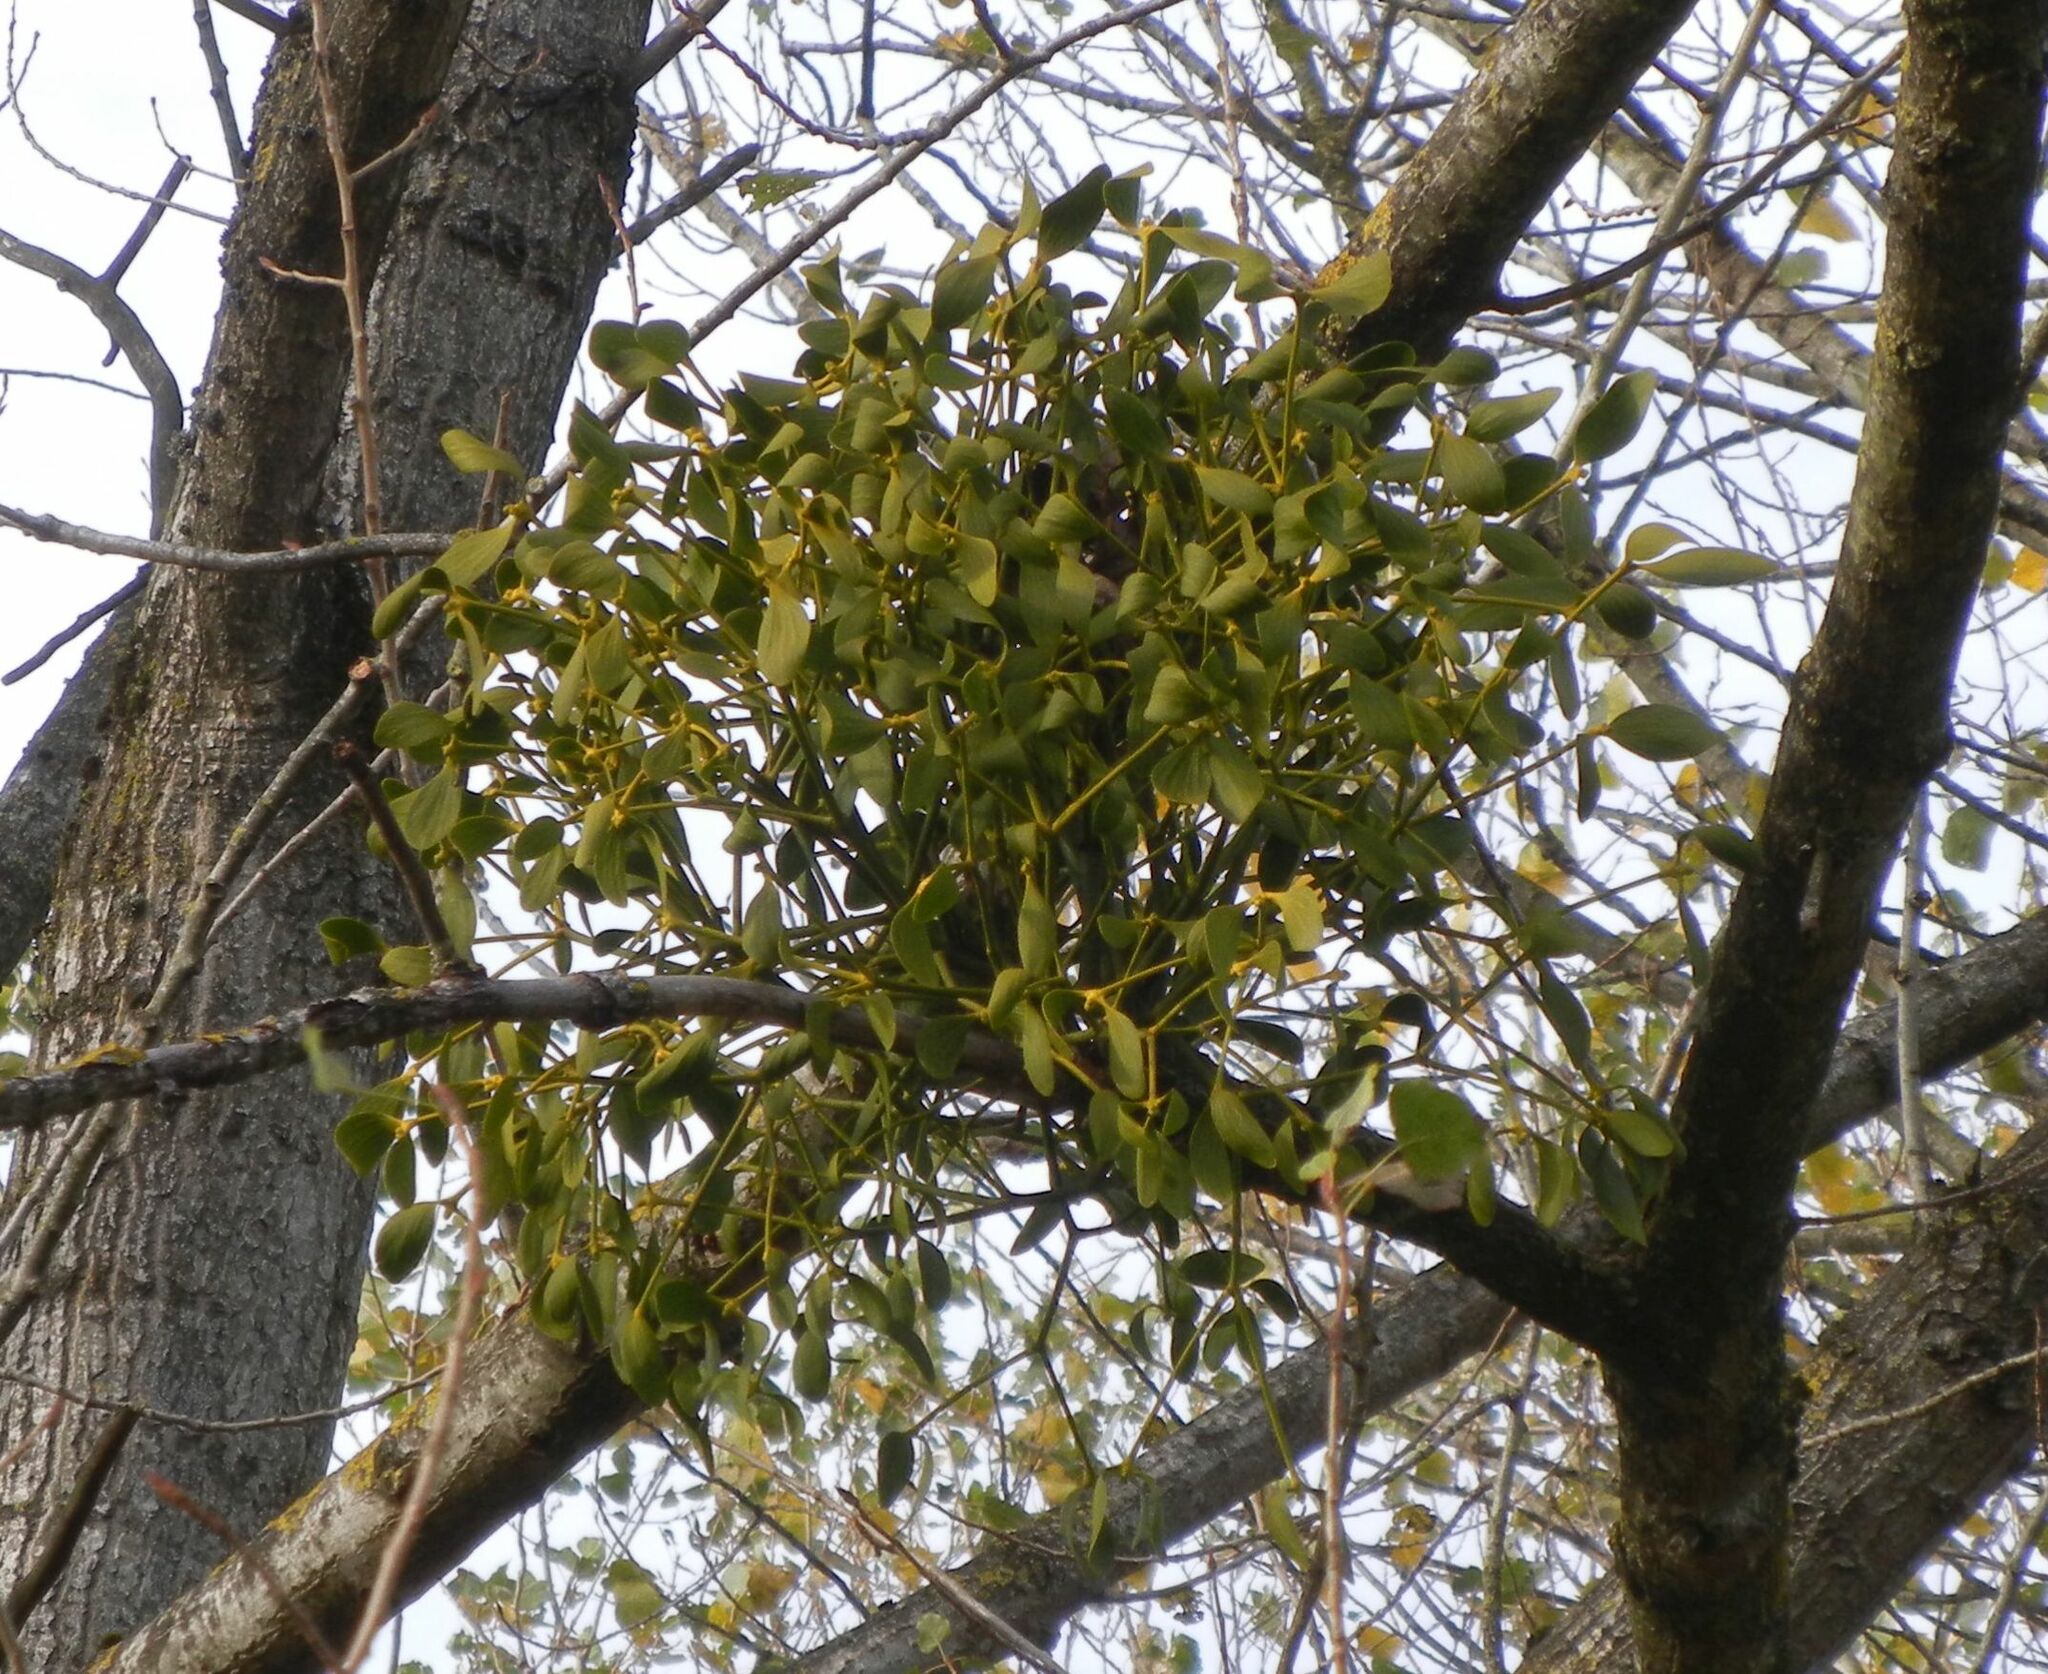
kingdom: Plantae
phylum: Tracheophyta
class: Magnoliopsida
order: Santalales
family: Viscaceae
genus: Viscum
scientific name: Viscum album
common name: Mistletoe
